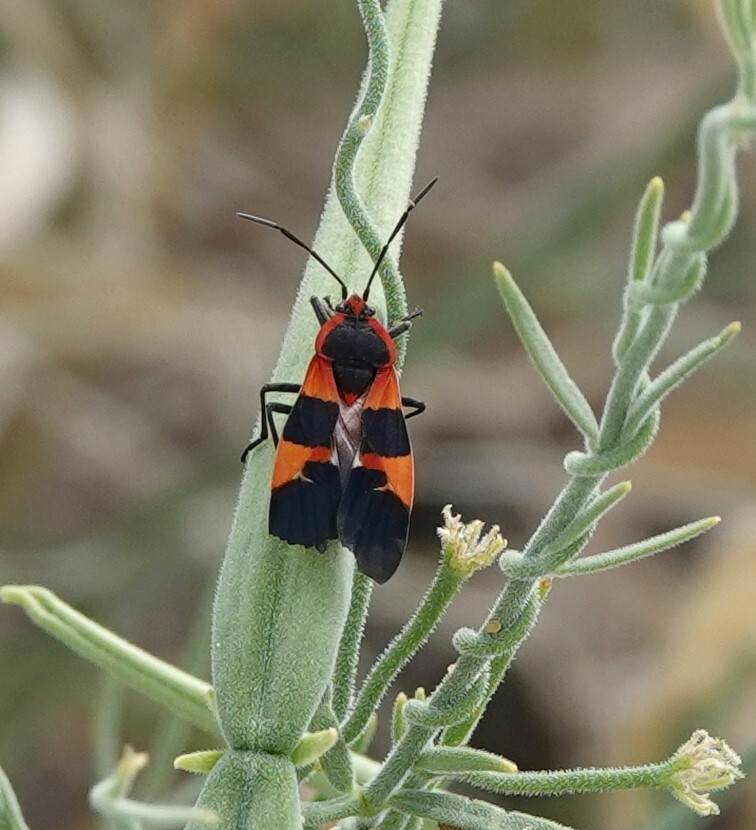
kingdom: Animalia
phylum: Arthropoda
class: Insecta
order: Hemiptera
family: Lygaeidae
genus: Oncopeltus
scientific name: Oncopeltus fasciatus
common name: Large milkweed bug
